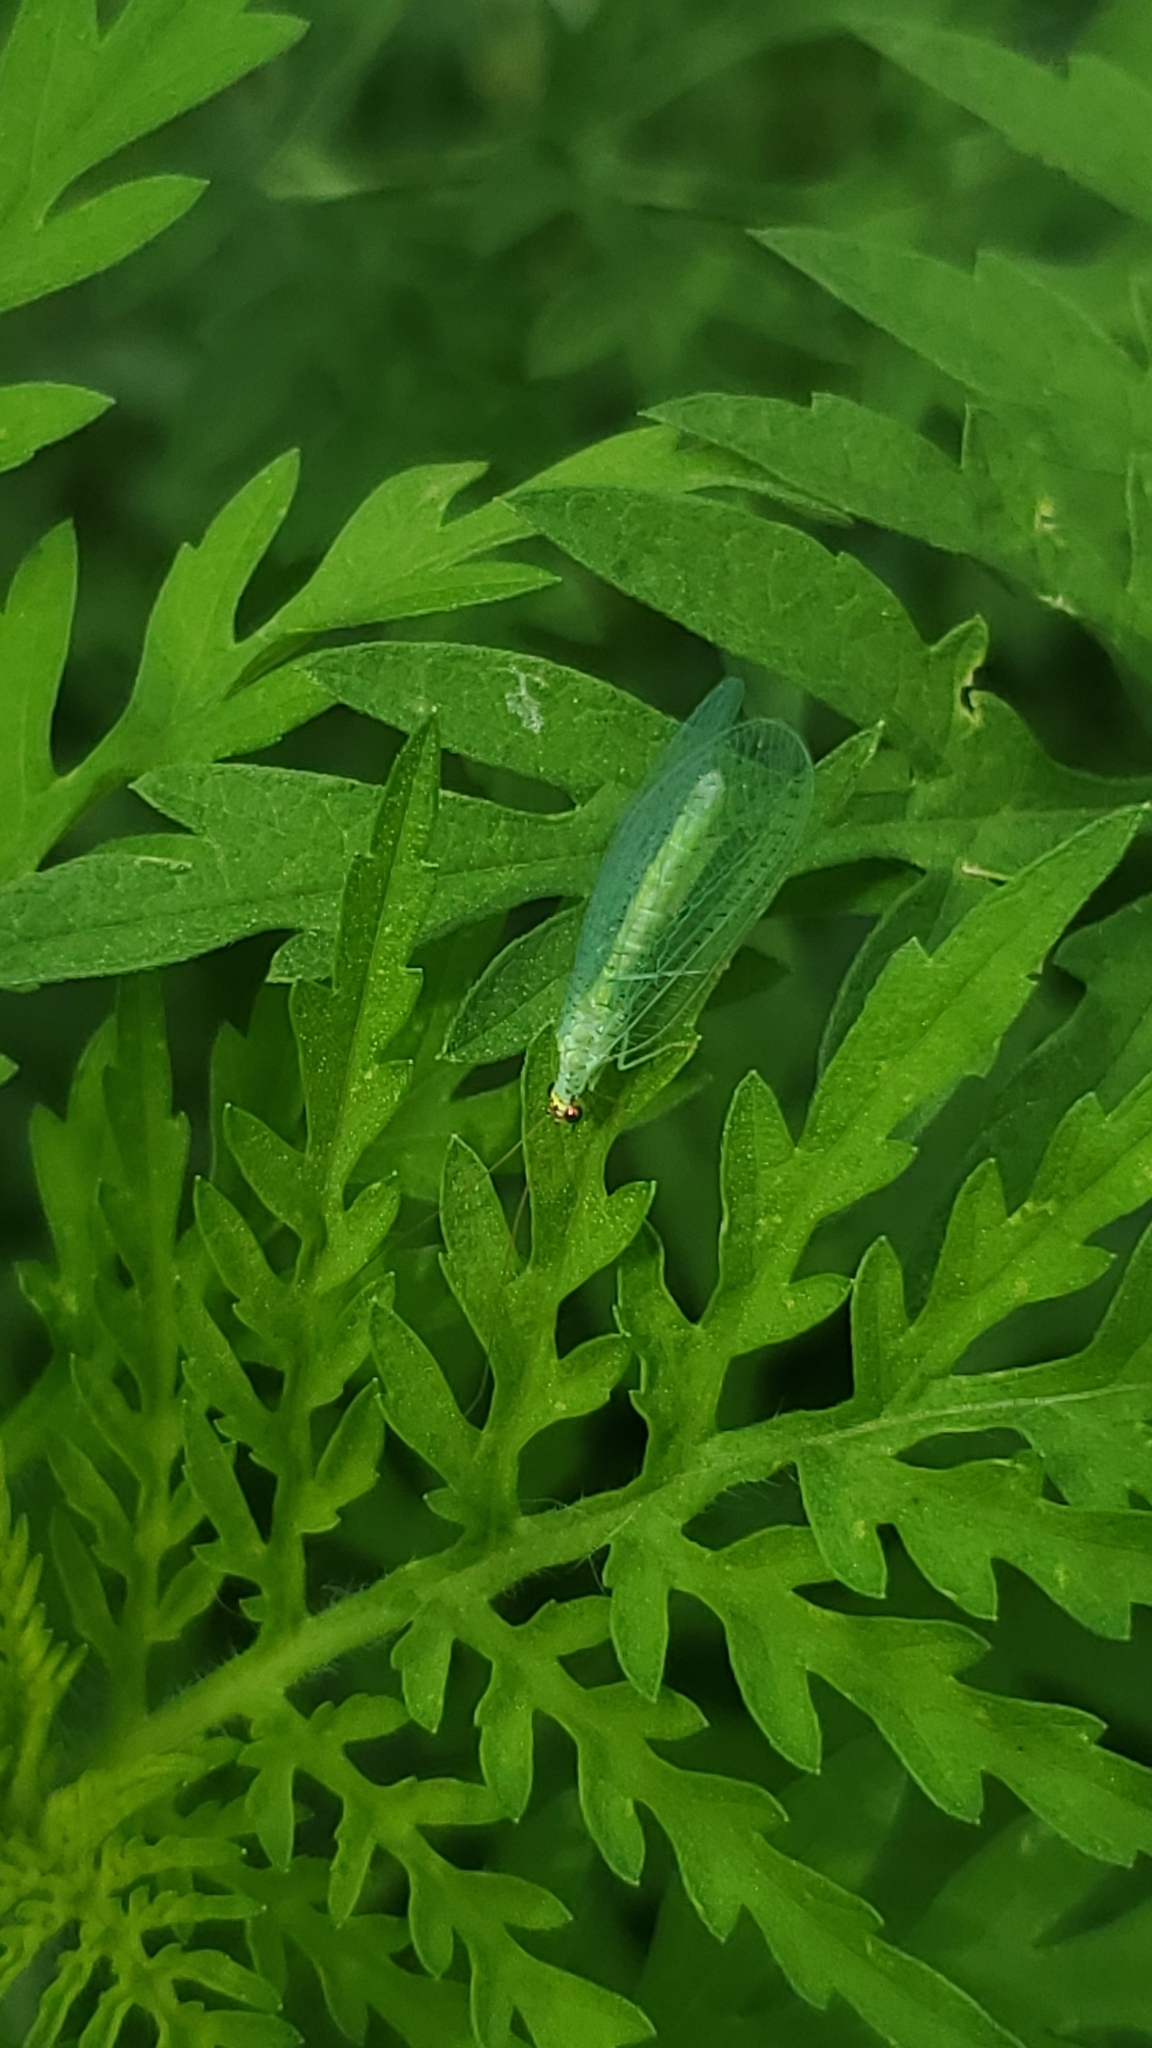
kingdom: Animalia
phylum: Arthropoda
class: Insecta
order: Neuroptera
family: Chrysopidae
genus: Chrysopa
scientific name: Chrysopa oculata
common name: Golden-eyed lacewing
